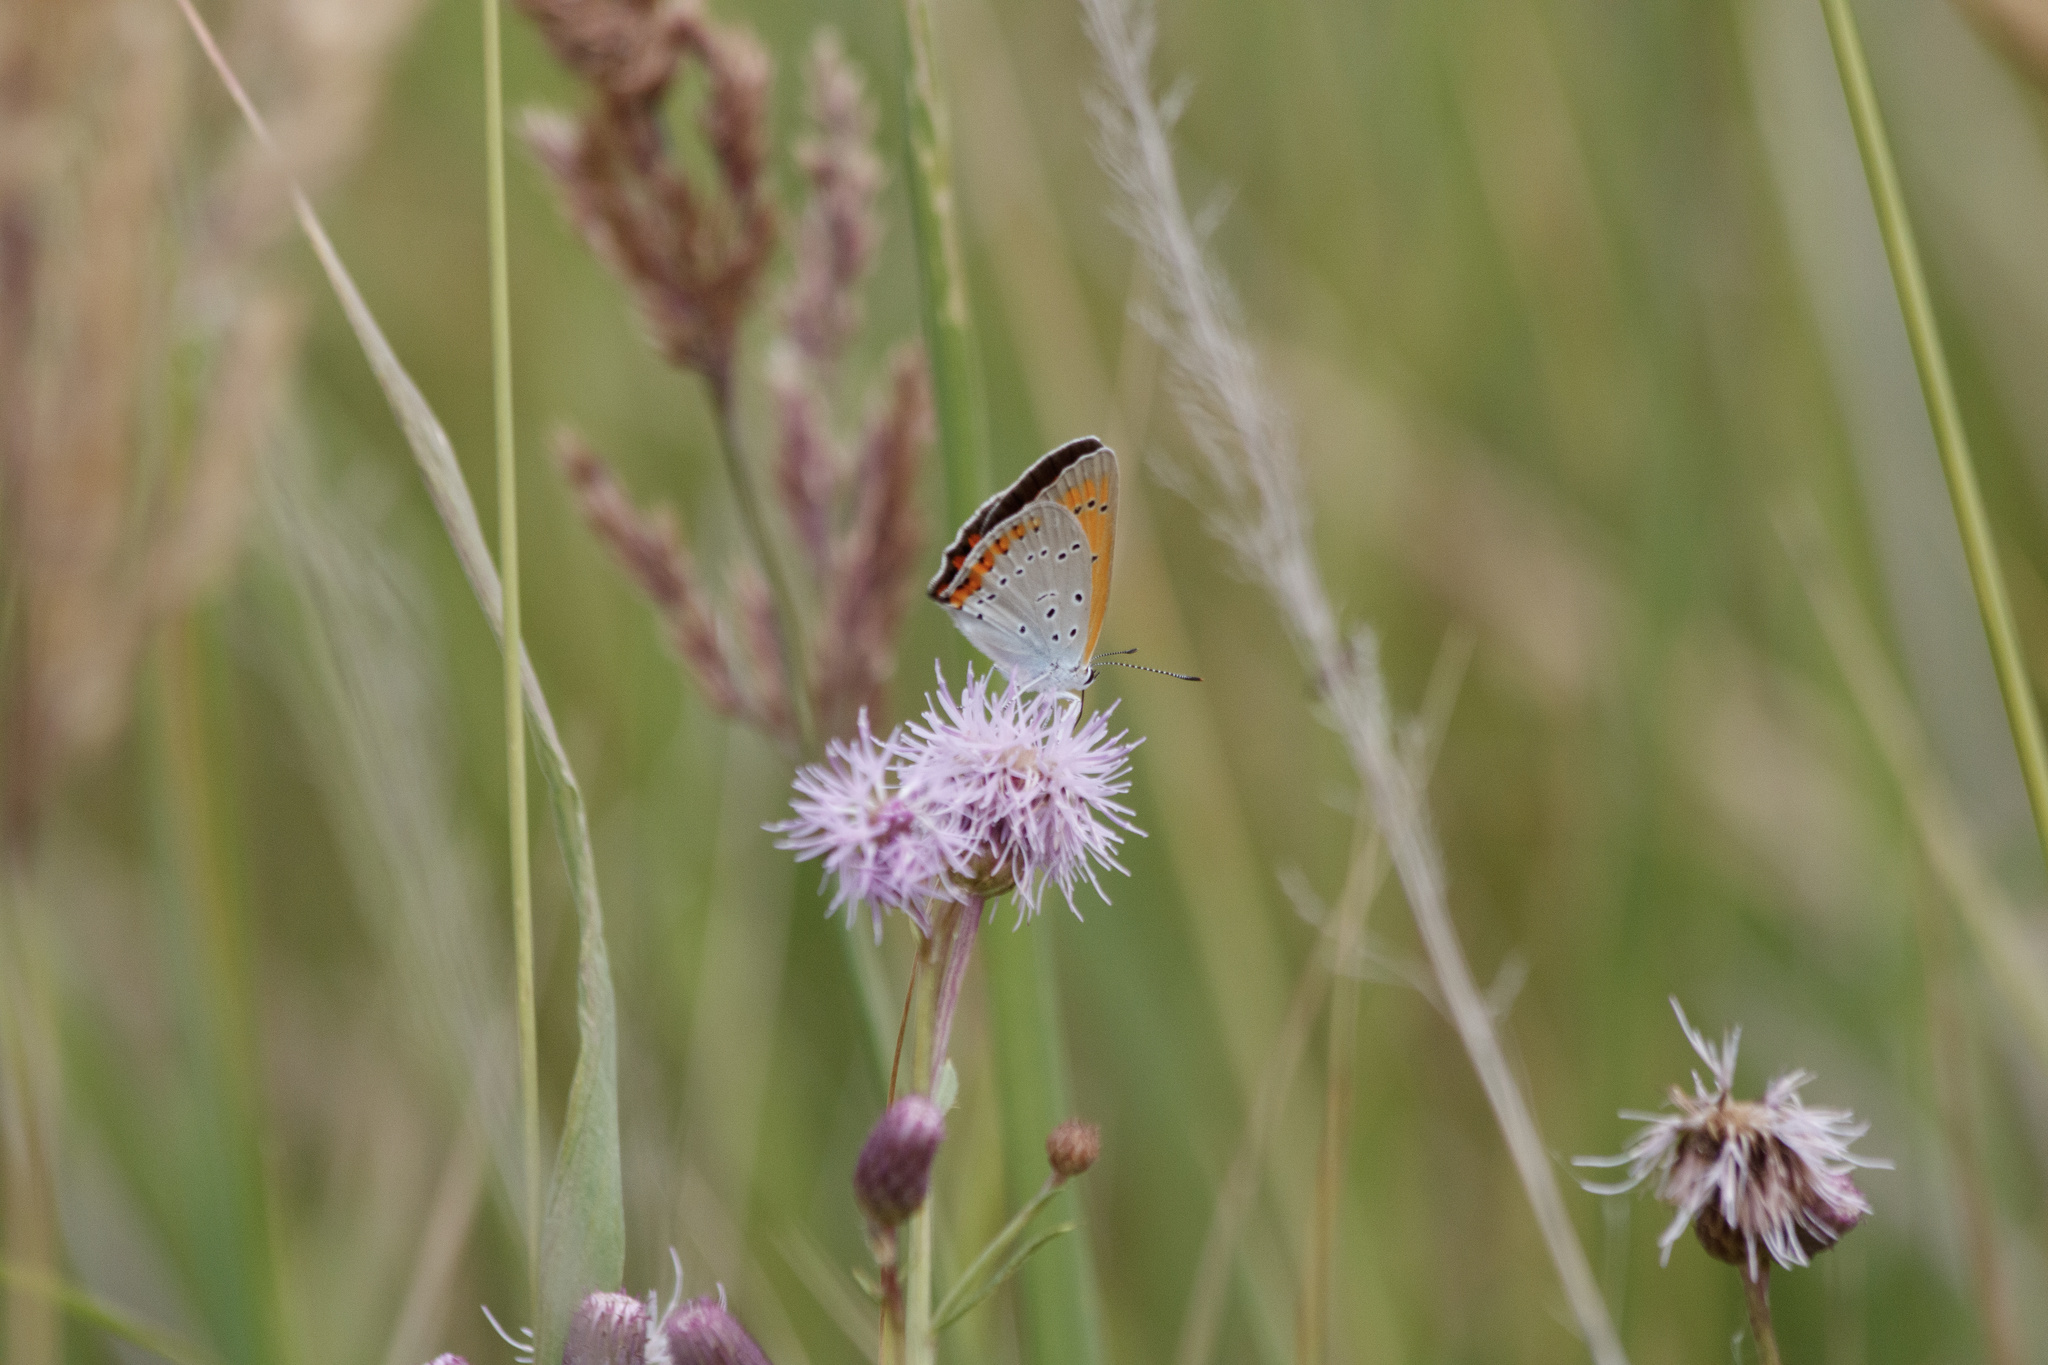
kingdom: Animalia
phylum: Arthropoda
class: Insecta
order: Lepidoptera
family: Lycaenidae
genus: Lycaena
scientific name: Lycaena dispar
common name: Large copper
